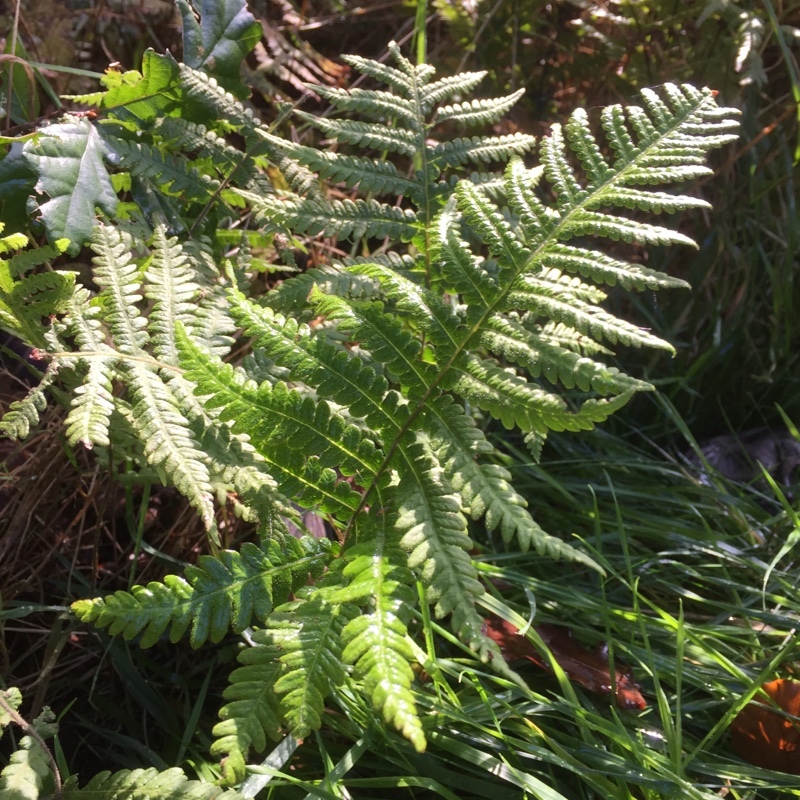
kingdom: Plantae
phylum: Tracheophyta
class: Polypodiopsida
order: Polypodiales
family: Thelypteridaceae
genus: Phegopteris
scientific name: Phegopteris connectilis
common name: Beech fern
